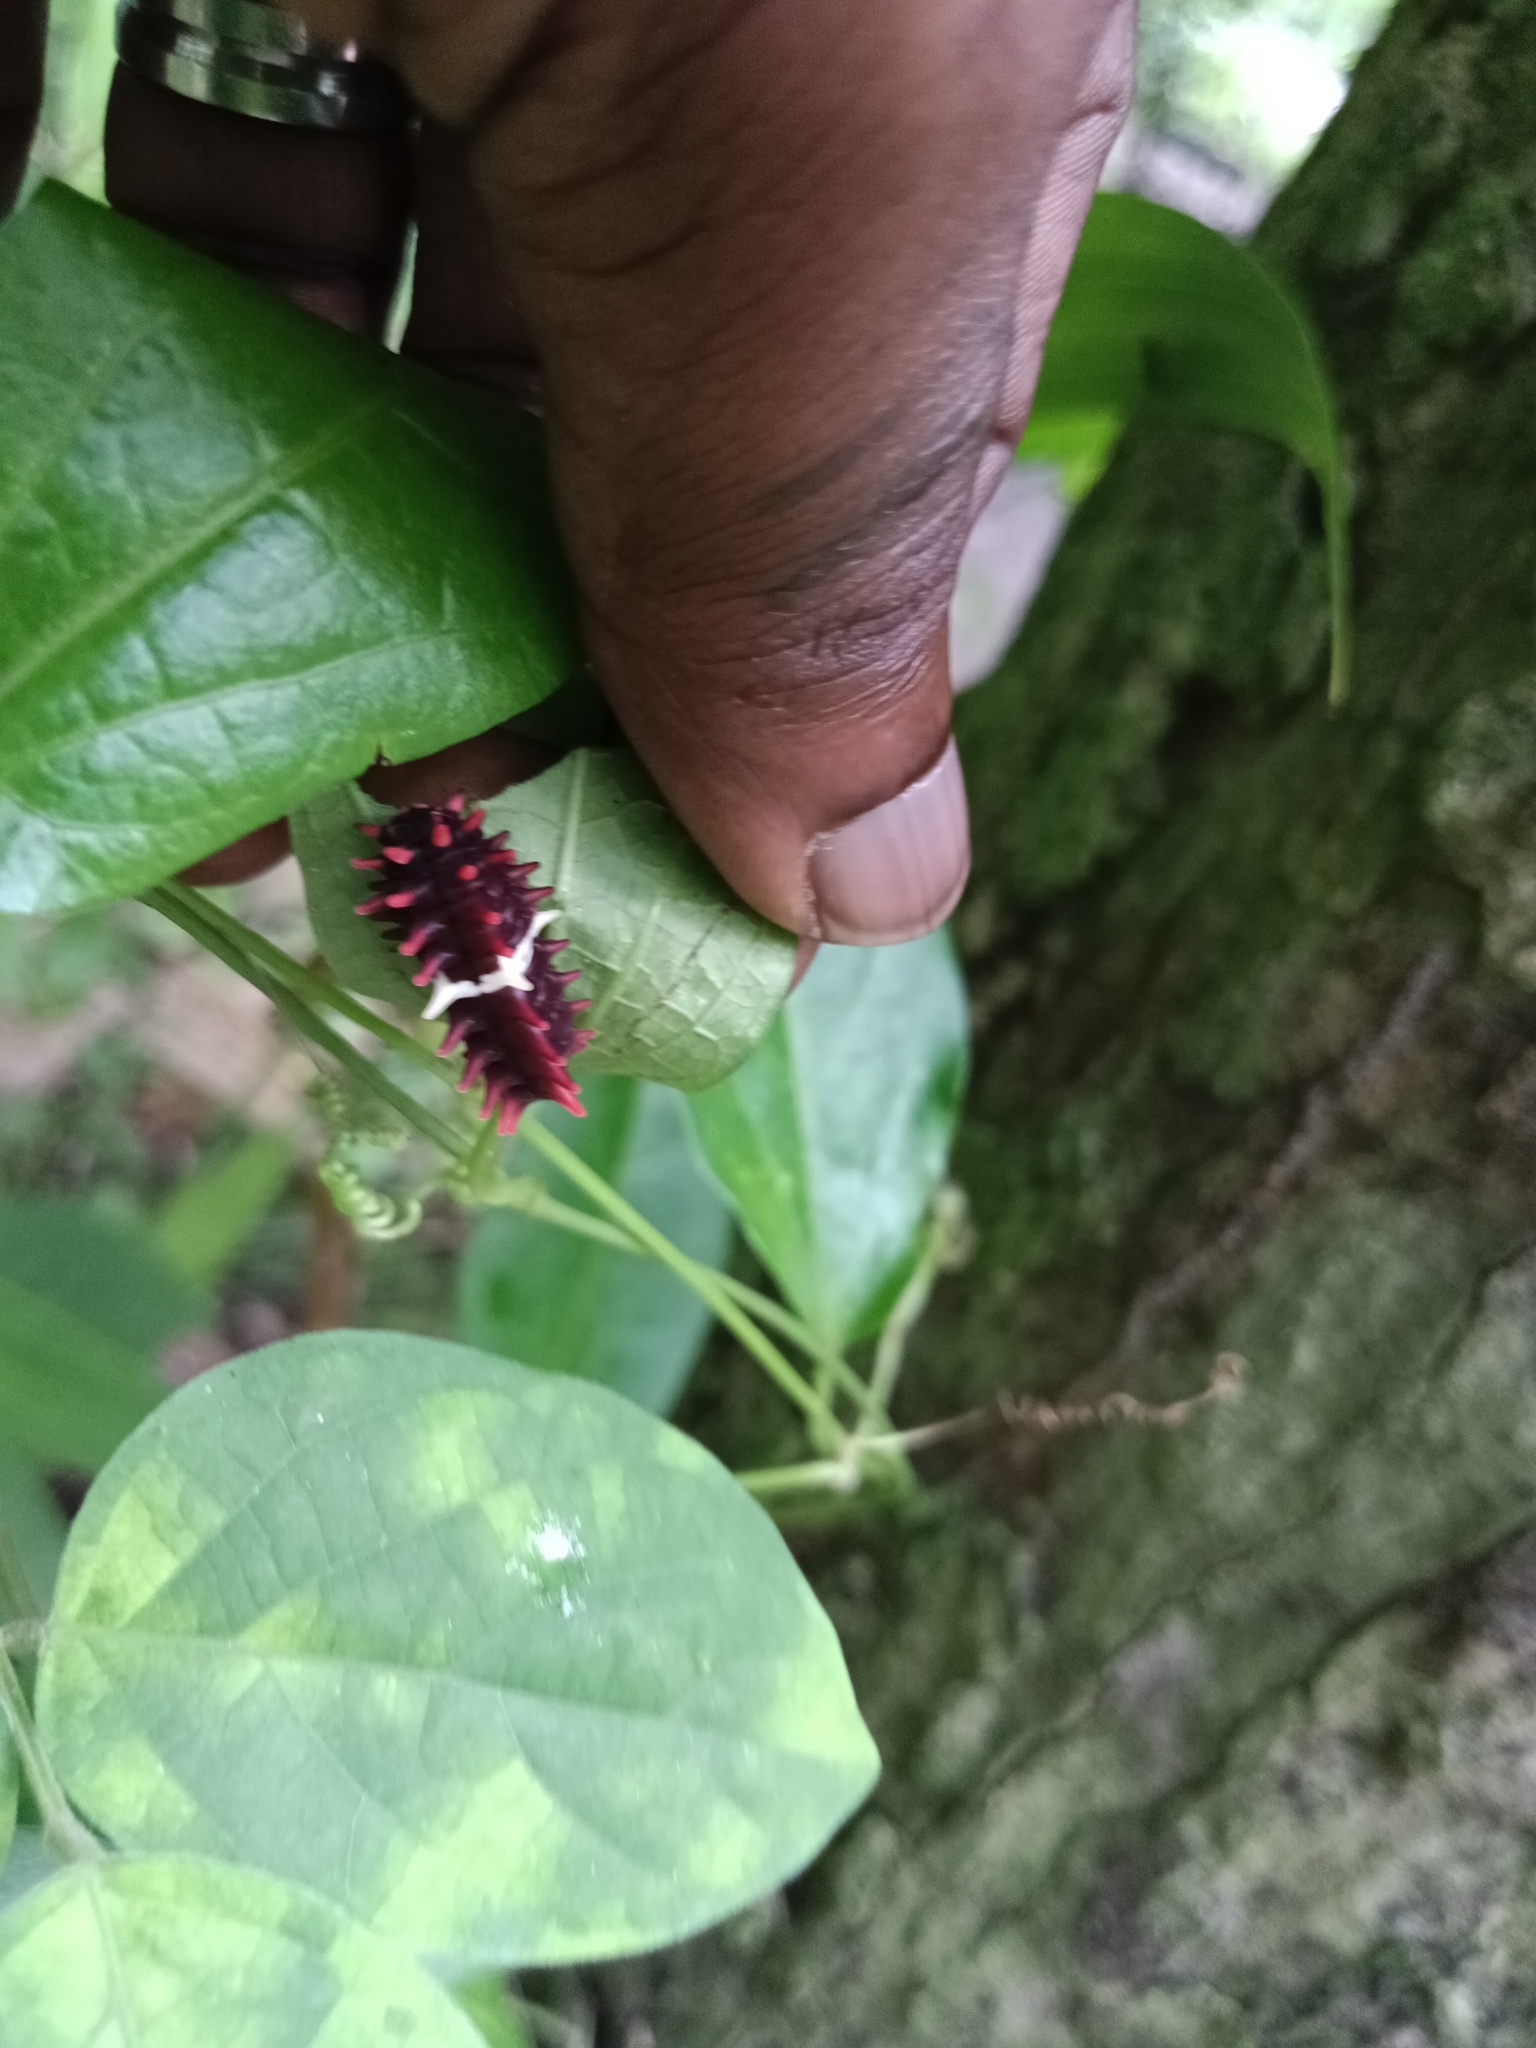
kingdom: Animalia
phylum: Arthropoda
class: Insecta
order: Lepidoptera
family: Papilionidae
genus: Pachliopta
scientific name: Pachliopta aristolochiae
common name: Common rose
